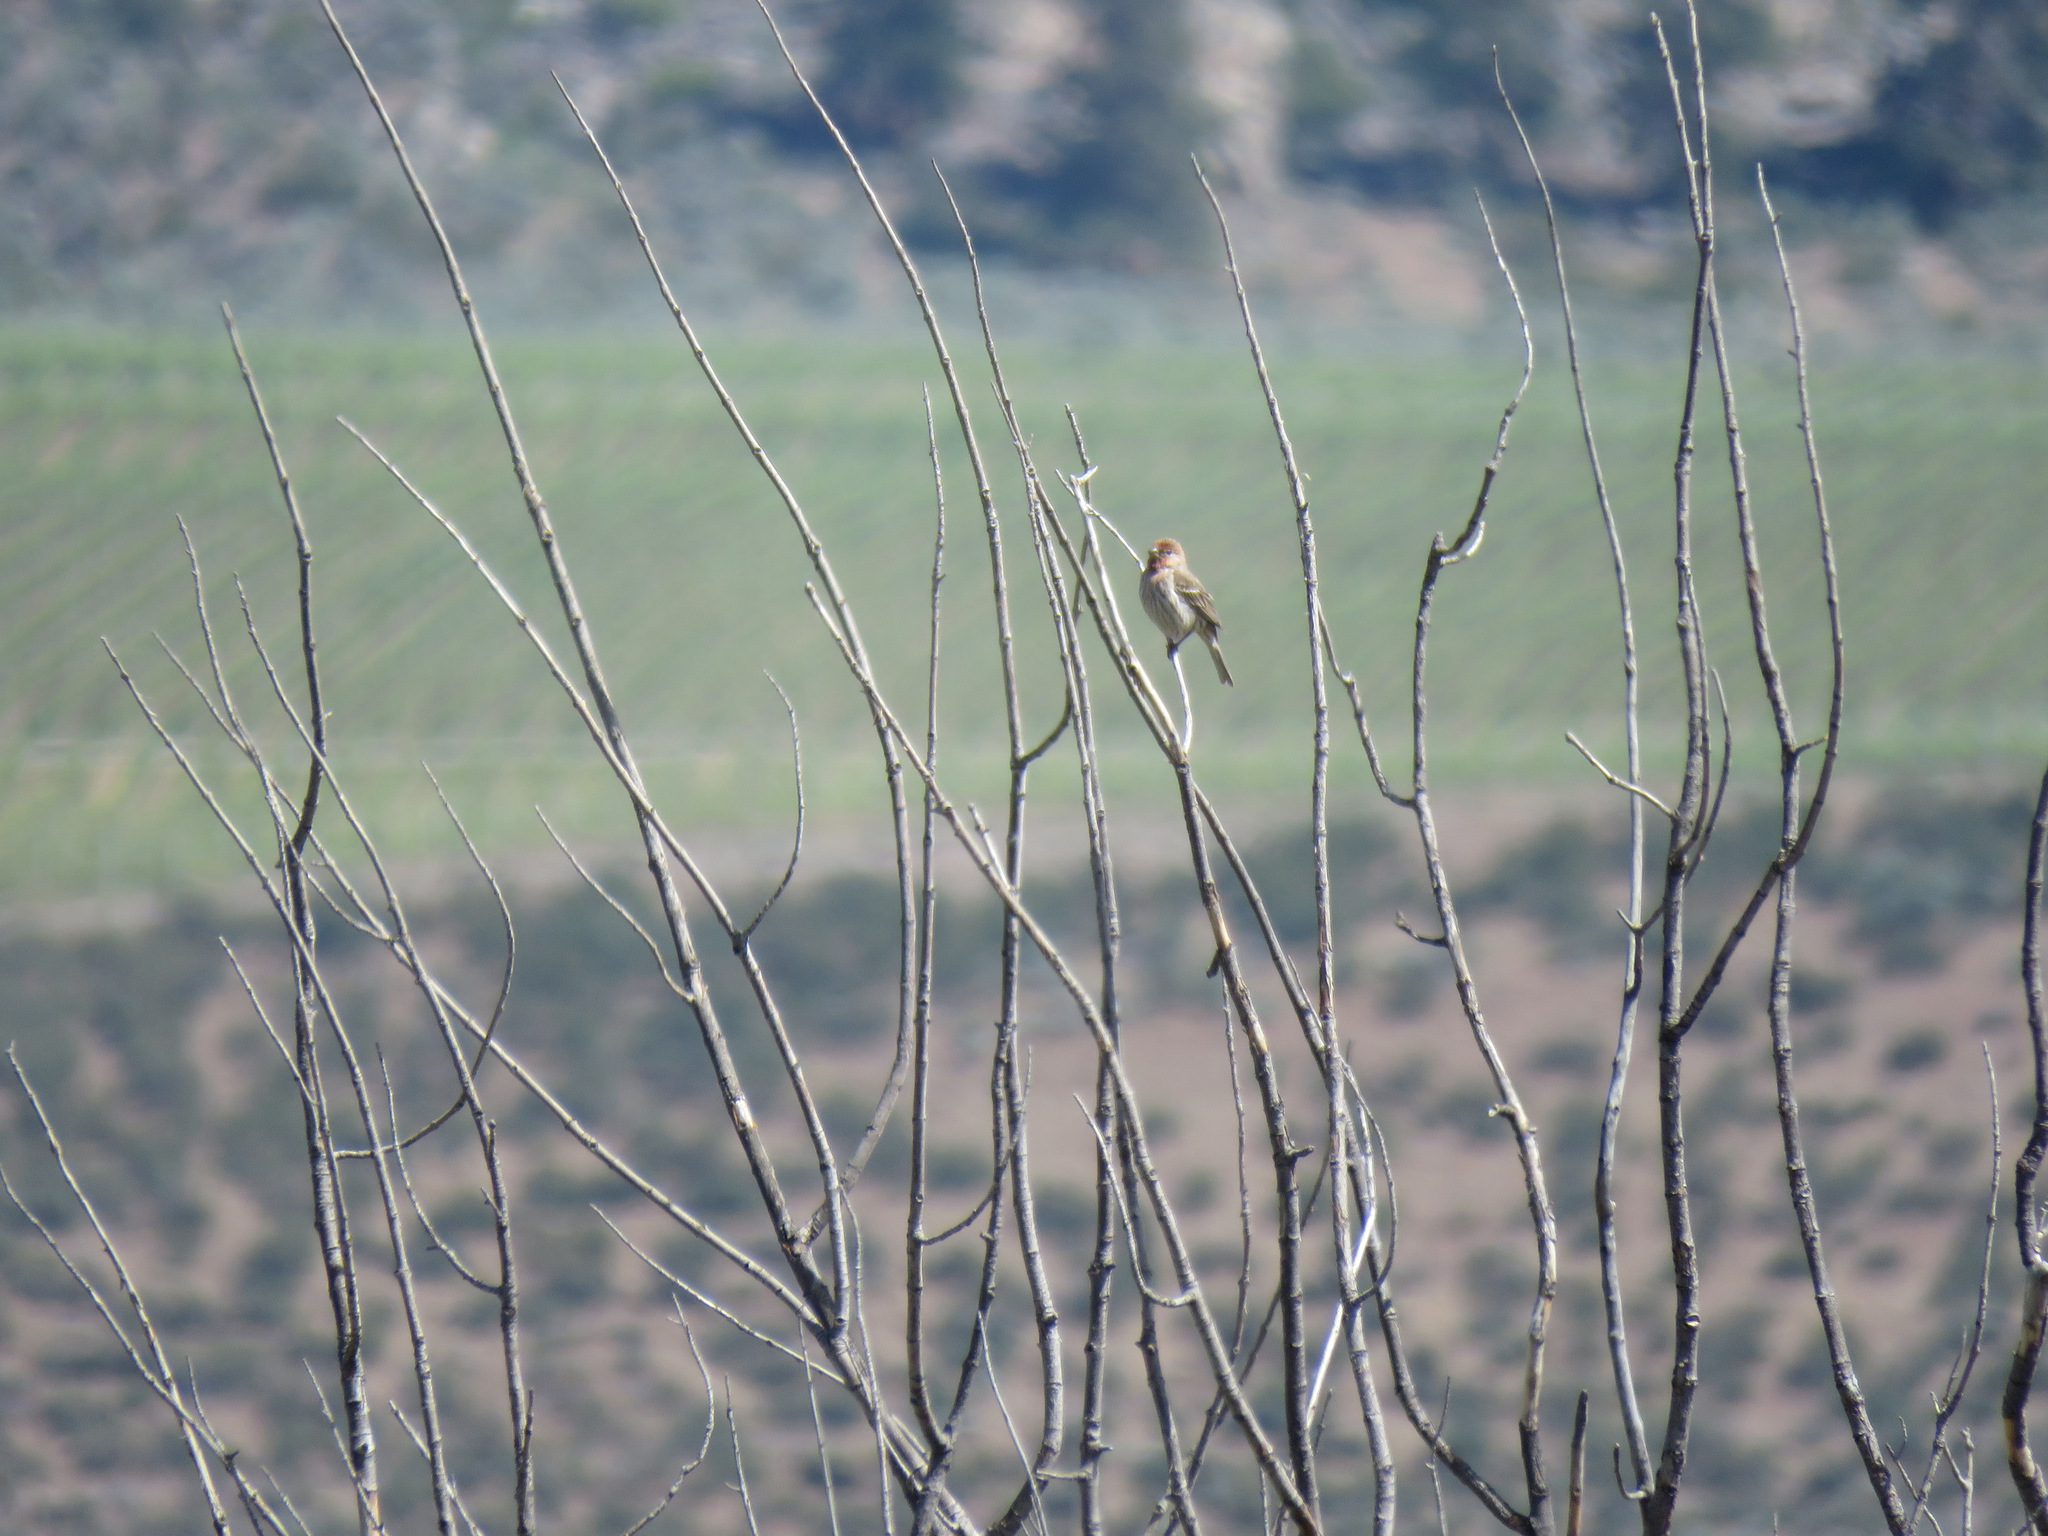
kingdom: Animalia
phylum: Chordata
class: Aves
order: Passeriformes
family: Fringillidae
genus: Haemorhous
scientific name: Haemorhous mexicanus
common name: House finch
